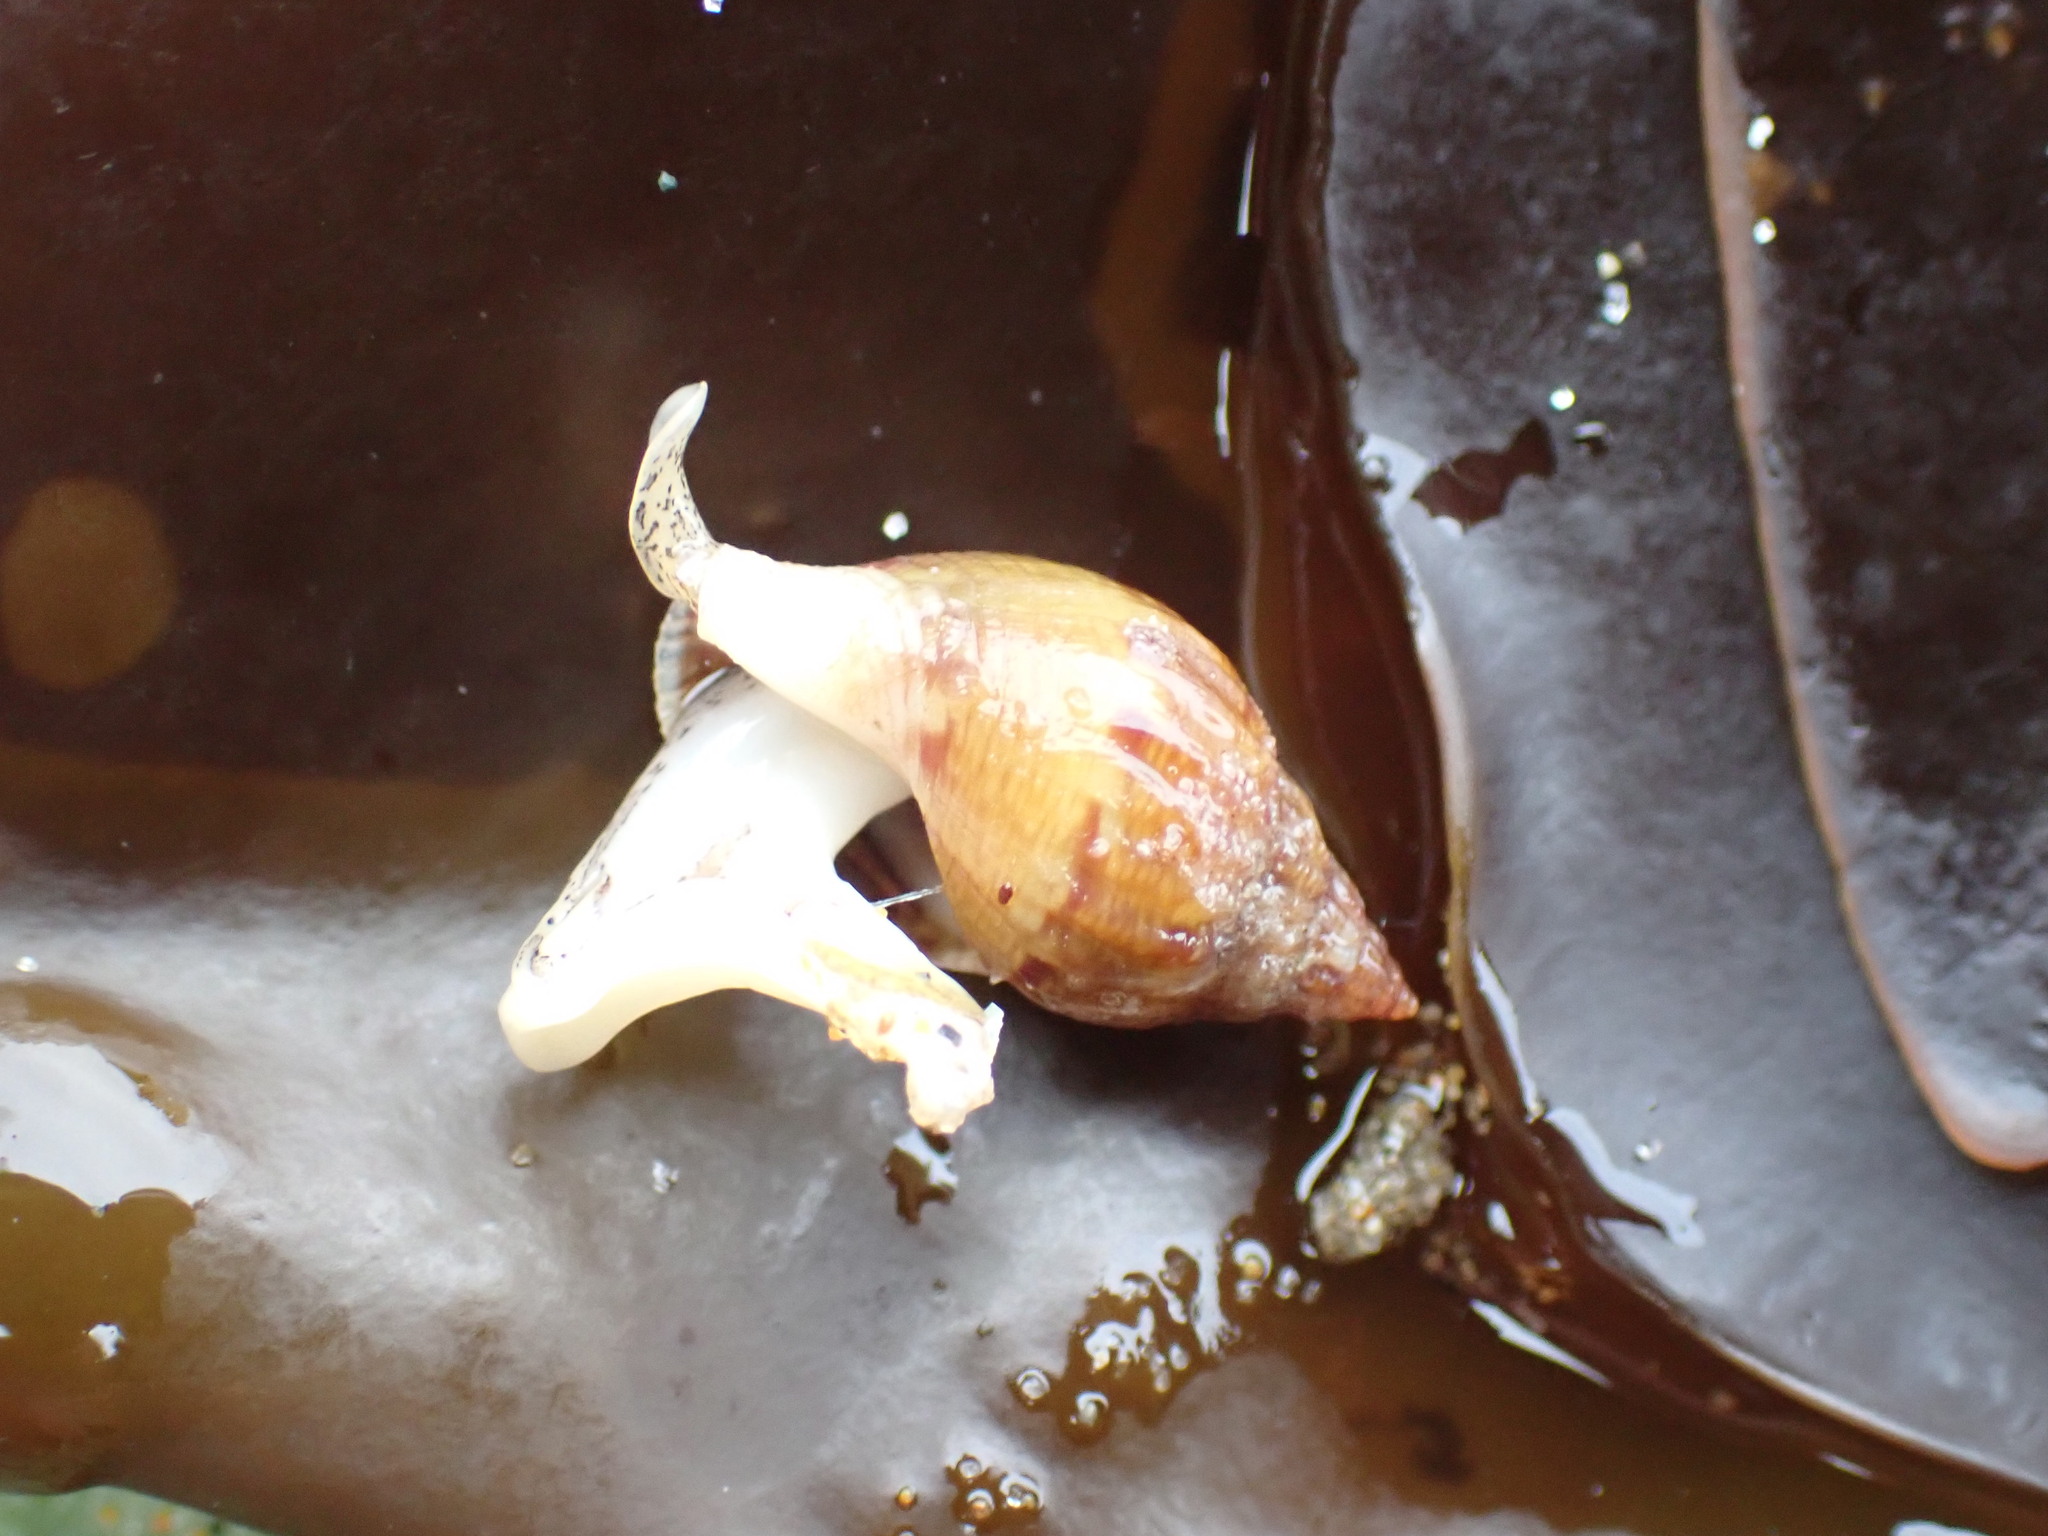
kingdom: Animalia
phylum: Mollusca
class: Gastropoda
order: Neogastropoda
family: Columbellidae
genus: Amphissa
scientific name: Amphissa columbiana
